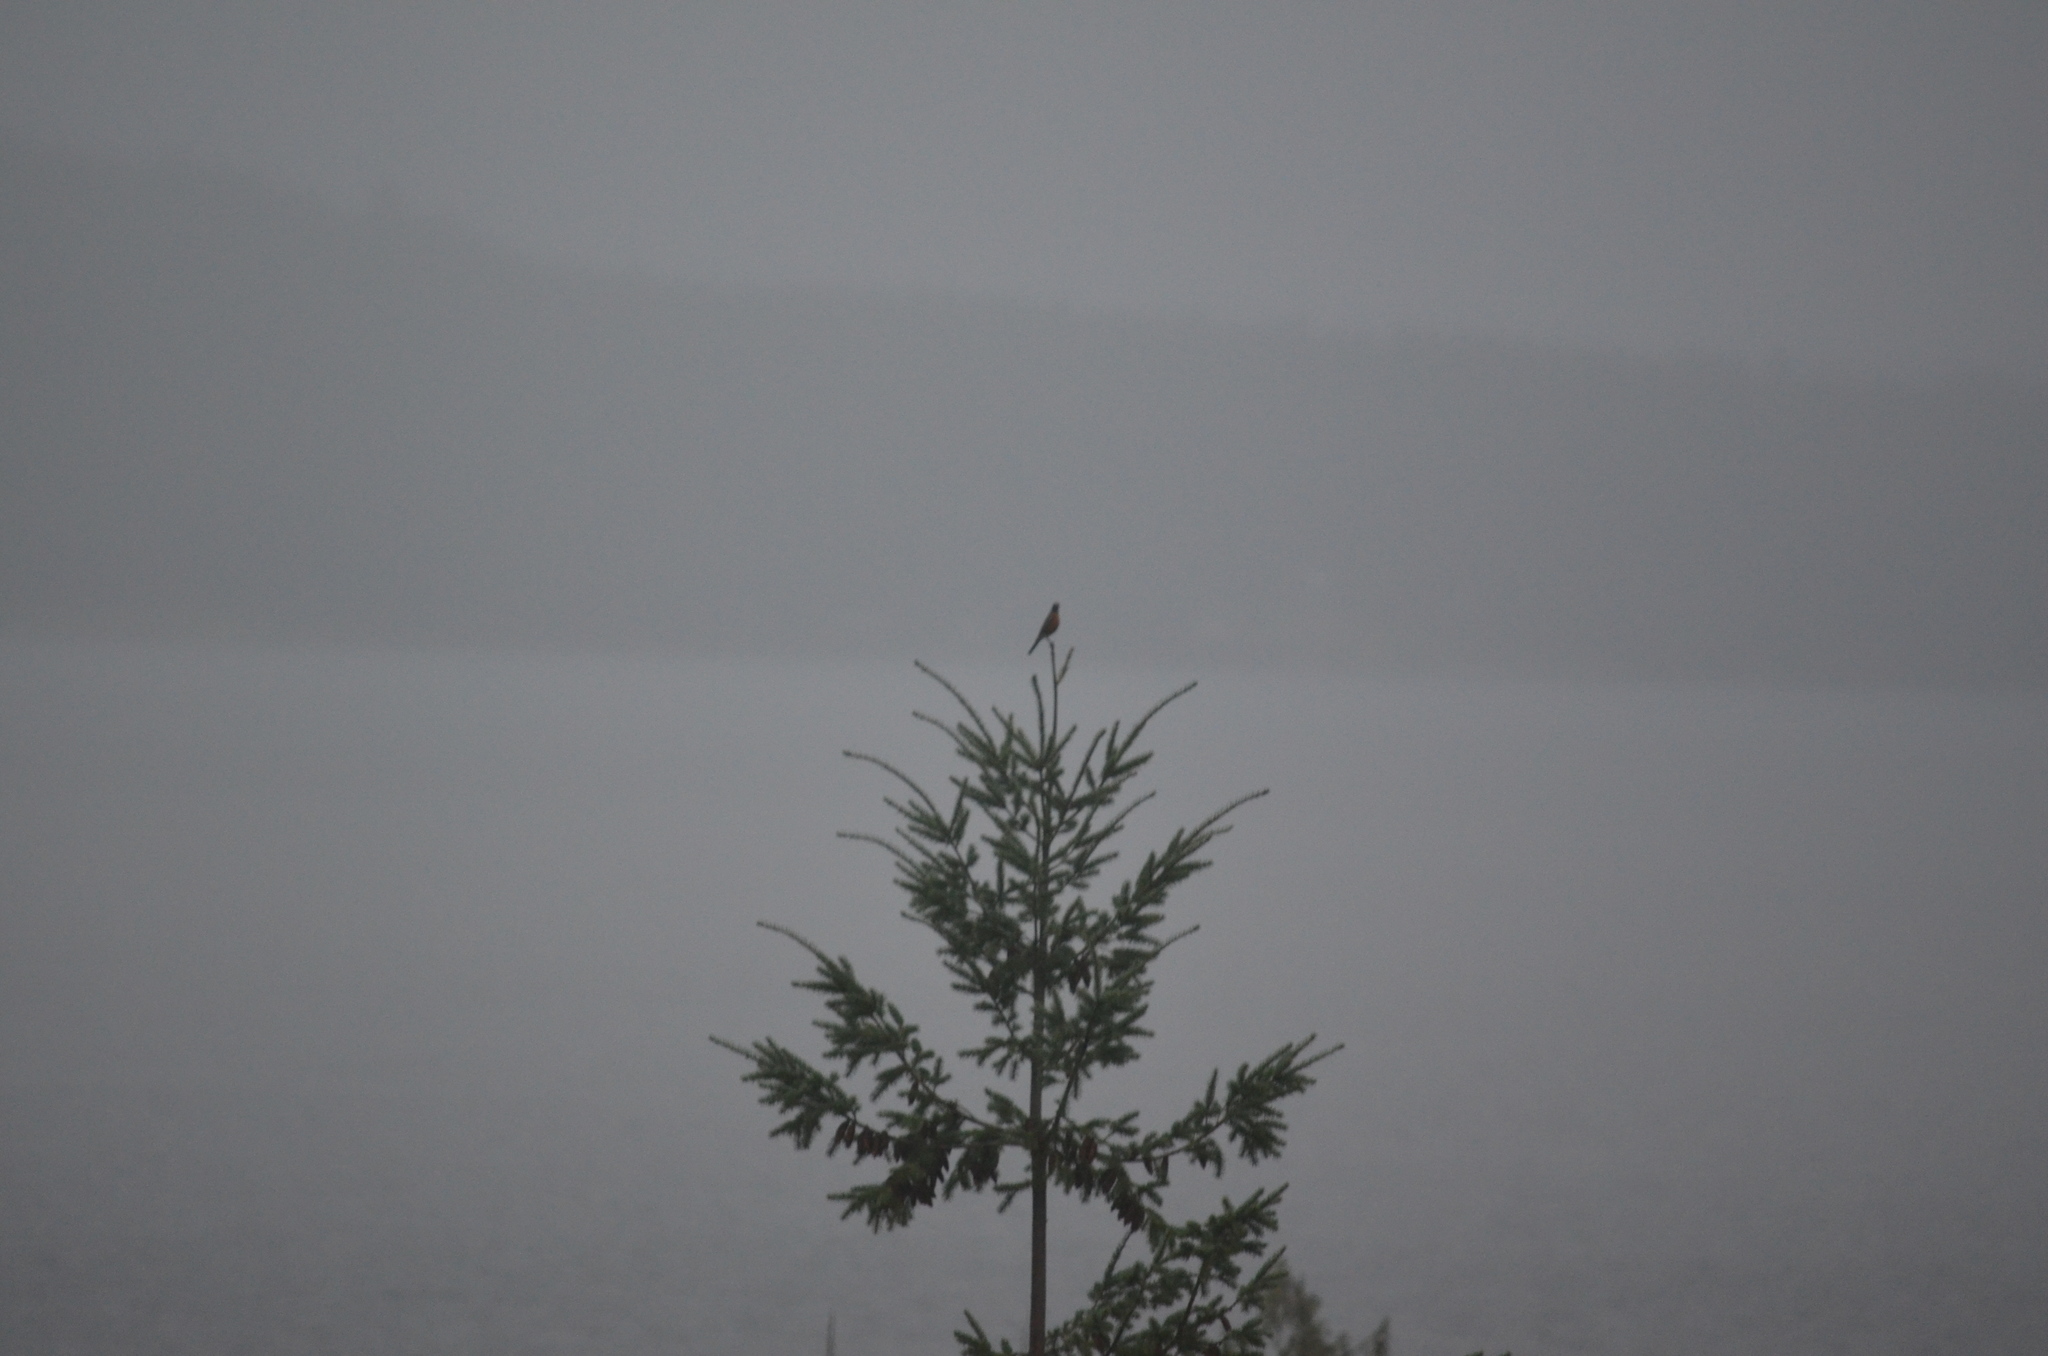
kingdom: Animalia
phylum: Chordata
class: Aves
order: Passeriformes
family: Turdidae
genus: Turdus
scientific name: Turdus migratorius
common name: American robin
